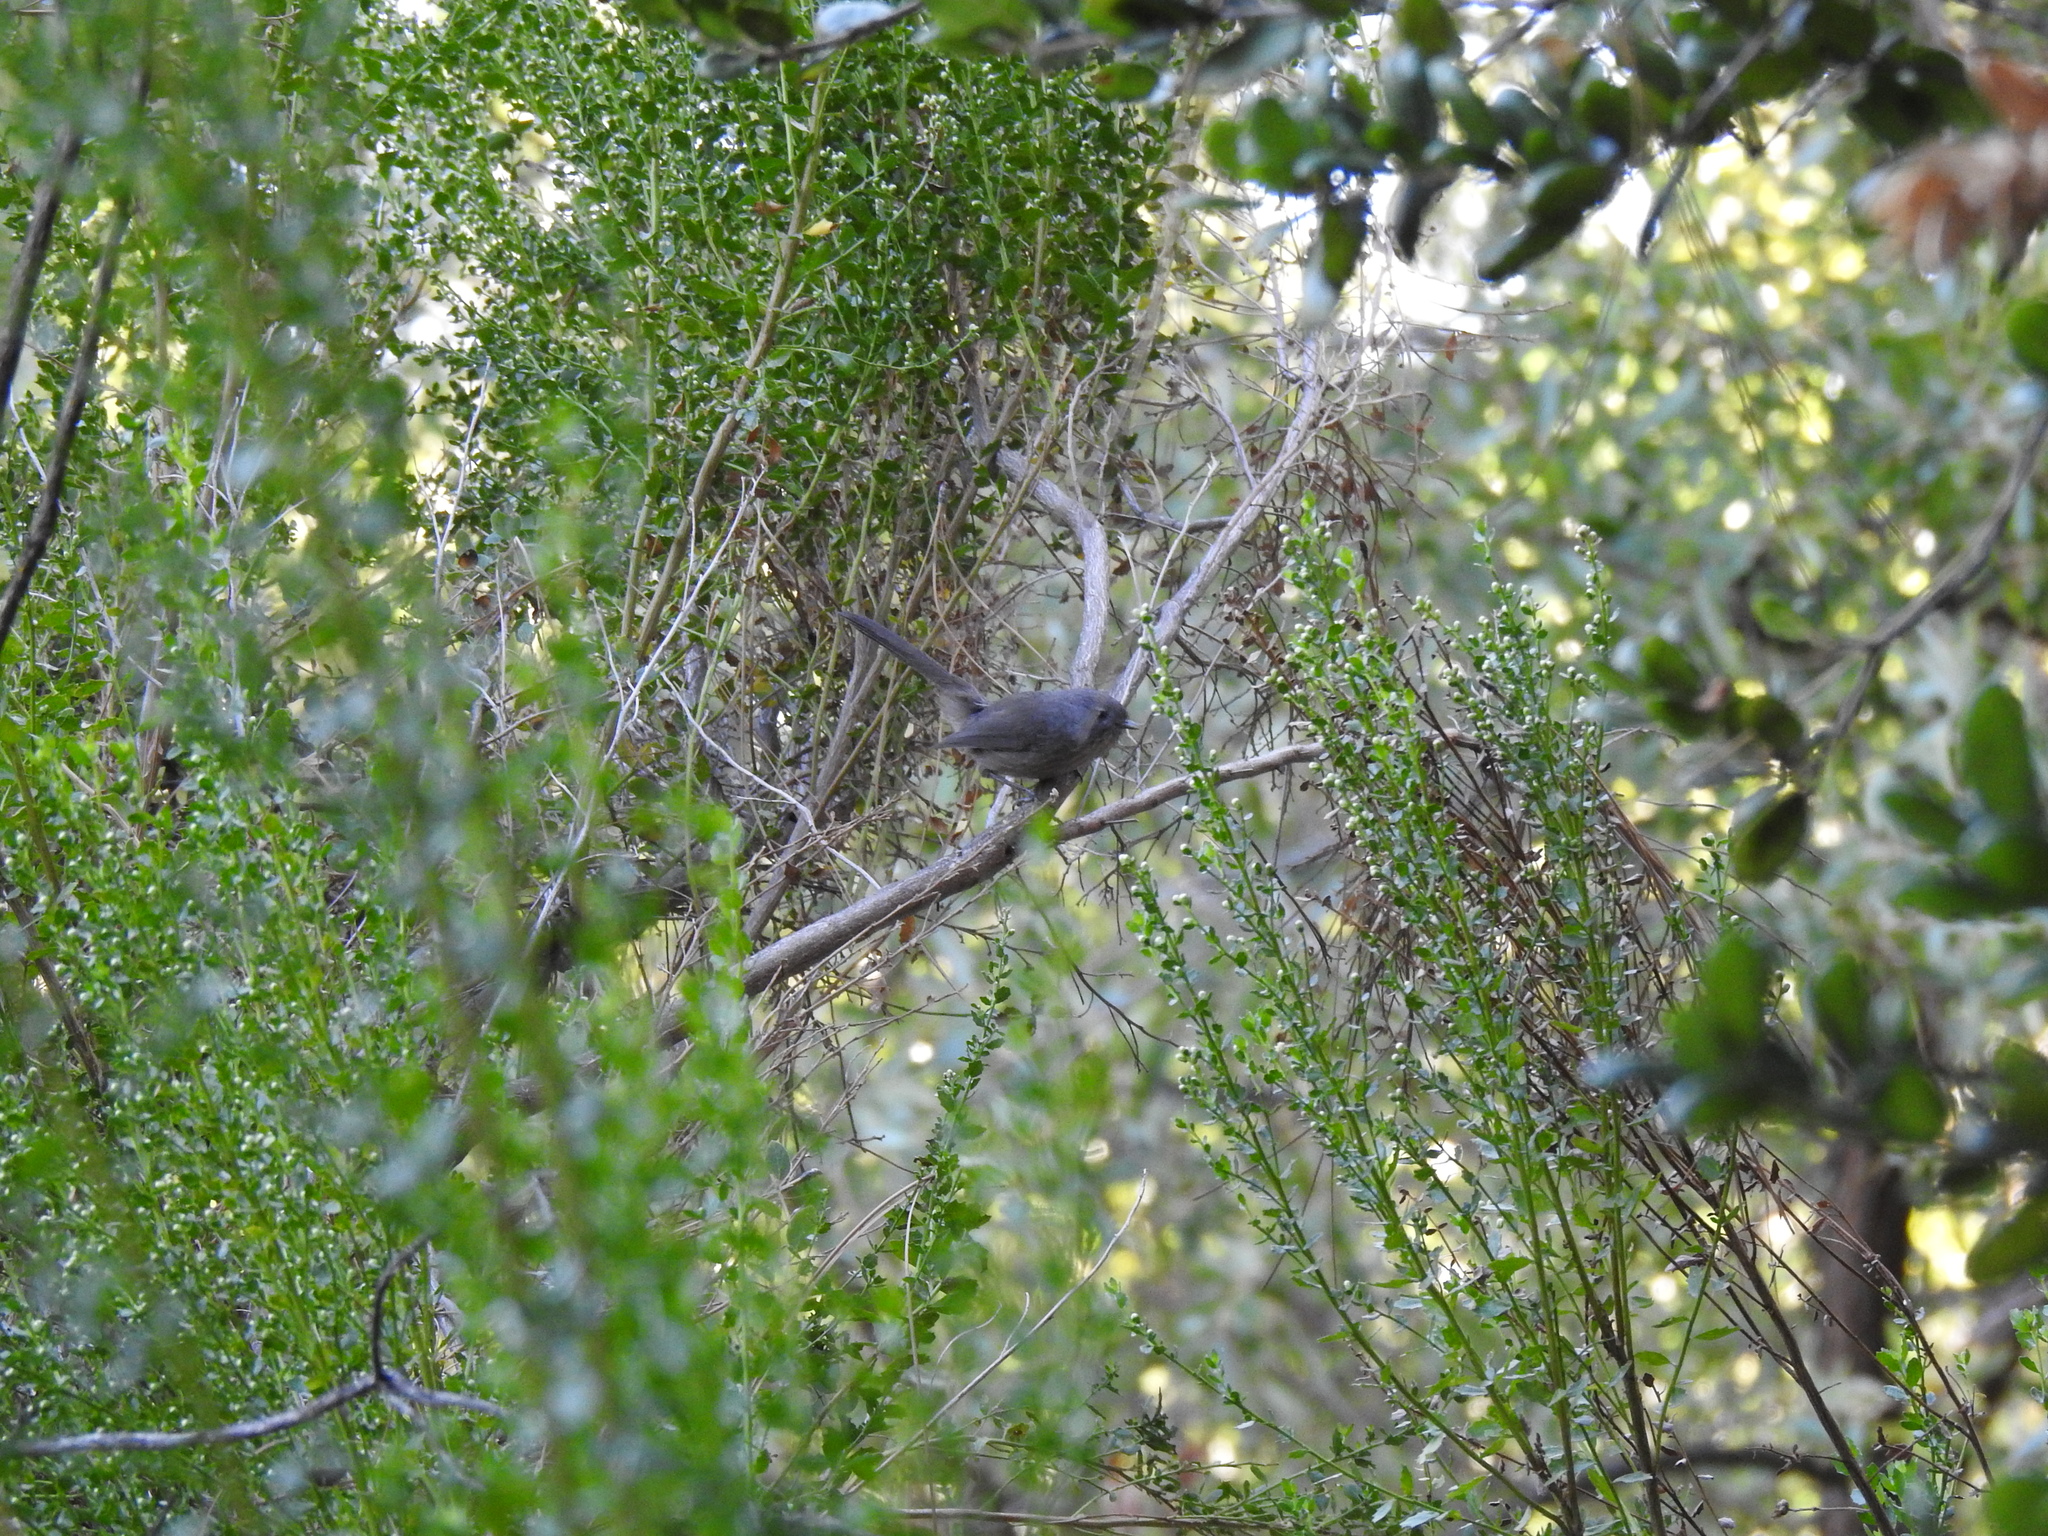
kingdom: Animalia
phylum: Chordata
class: Aves
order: Passeriformes
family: Sylviidae
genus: Chamaea
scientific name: Chamaea fasciata
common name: Wrentit
